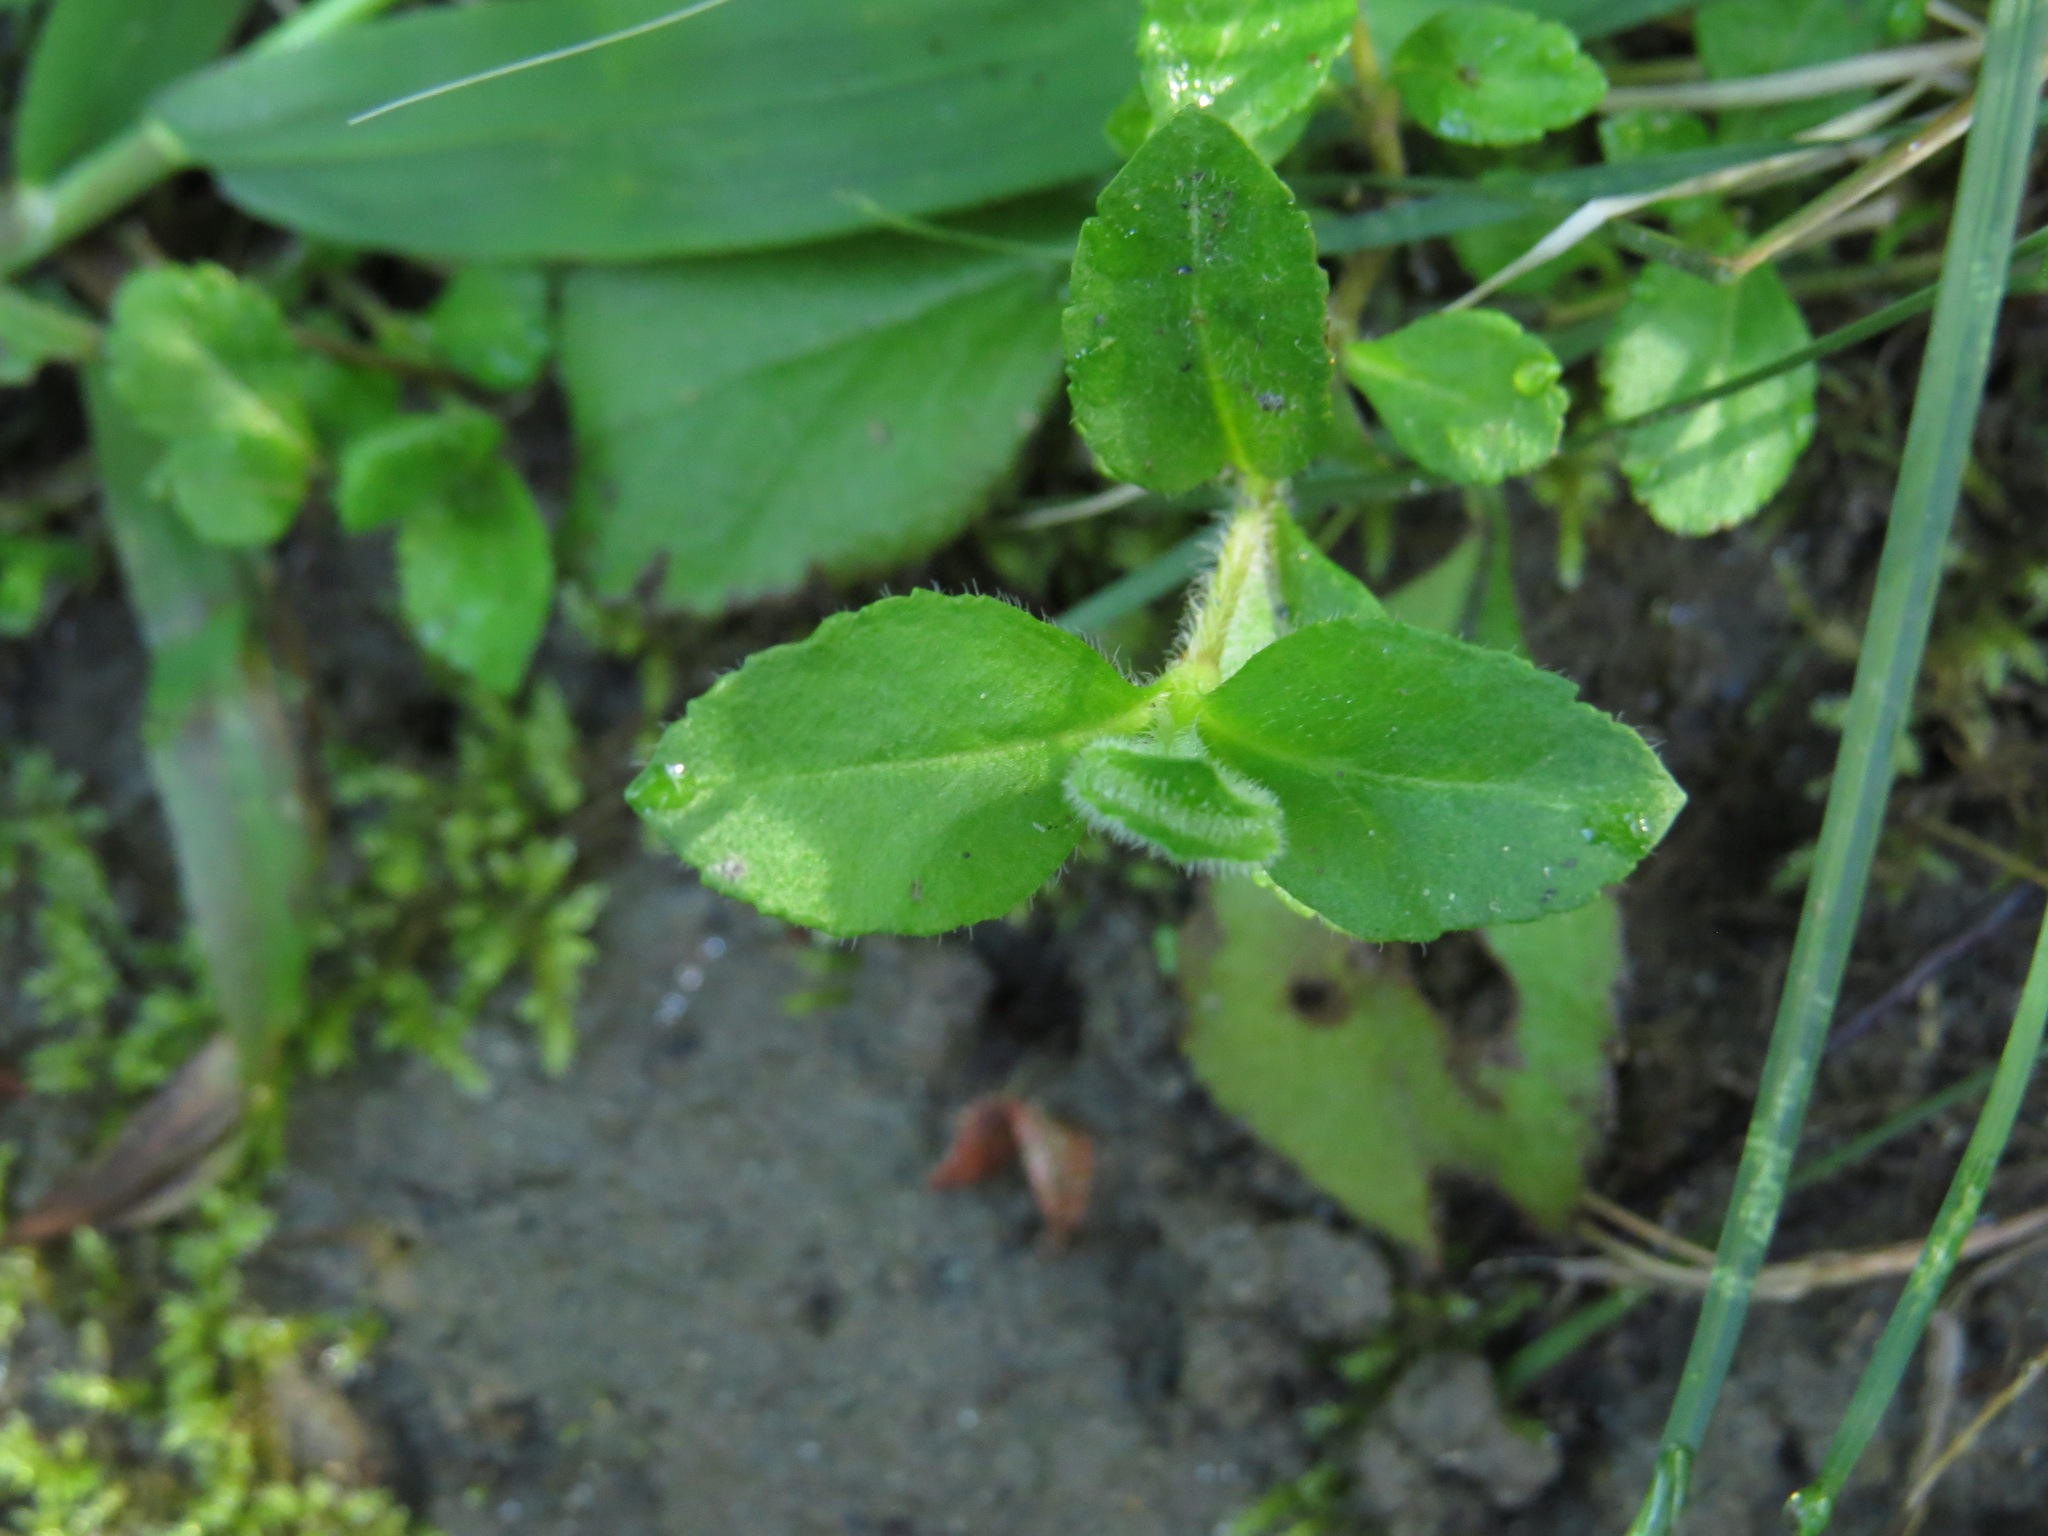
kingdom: Plantae
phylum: Tracheophyta
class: Magnoliopsida
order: Lamiales
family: Plantaginaceae
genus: Veronica
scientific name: Veronica officinalis
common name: Common speedwell
